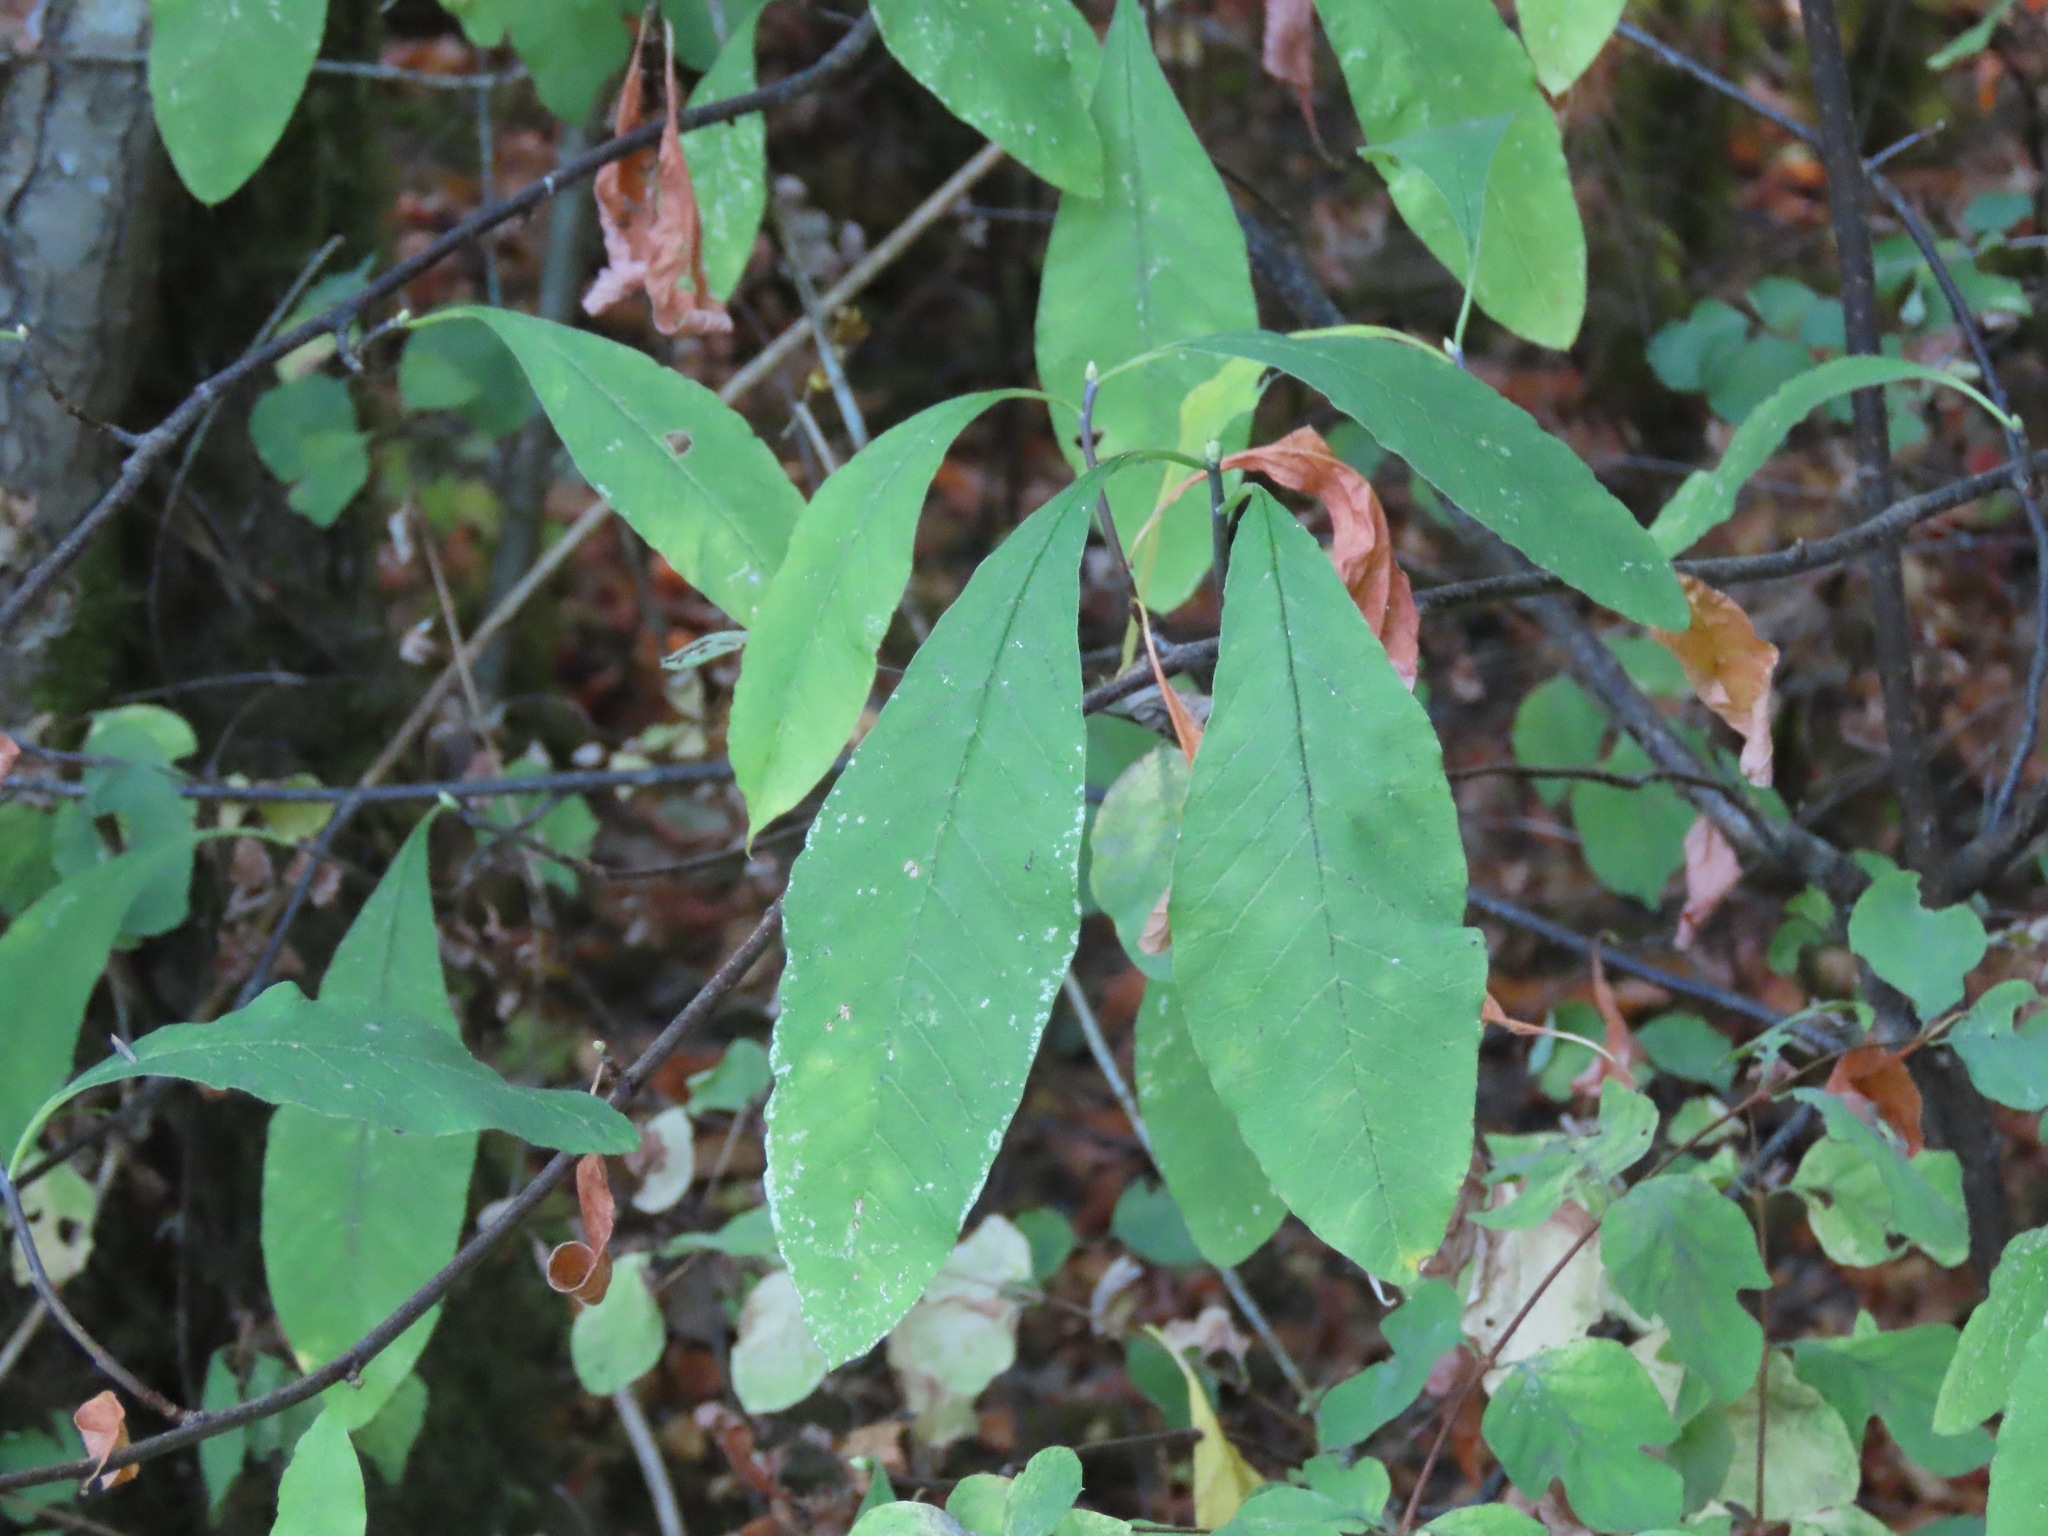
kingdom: Plantae
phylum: Tracheophyta
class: Magnoliopsida
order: Rosales
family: Rosaceae
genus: Oemleria
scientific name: Oemleria cerasiformis
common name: Osoberry
